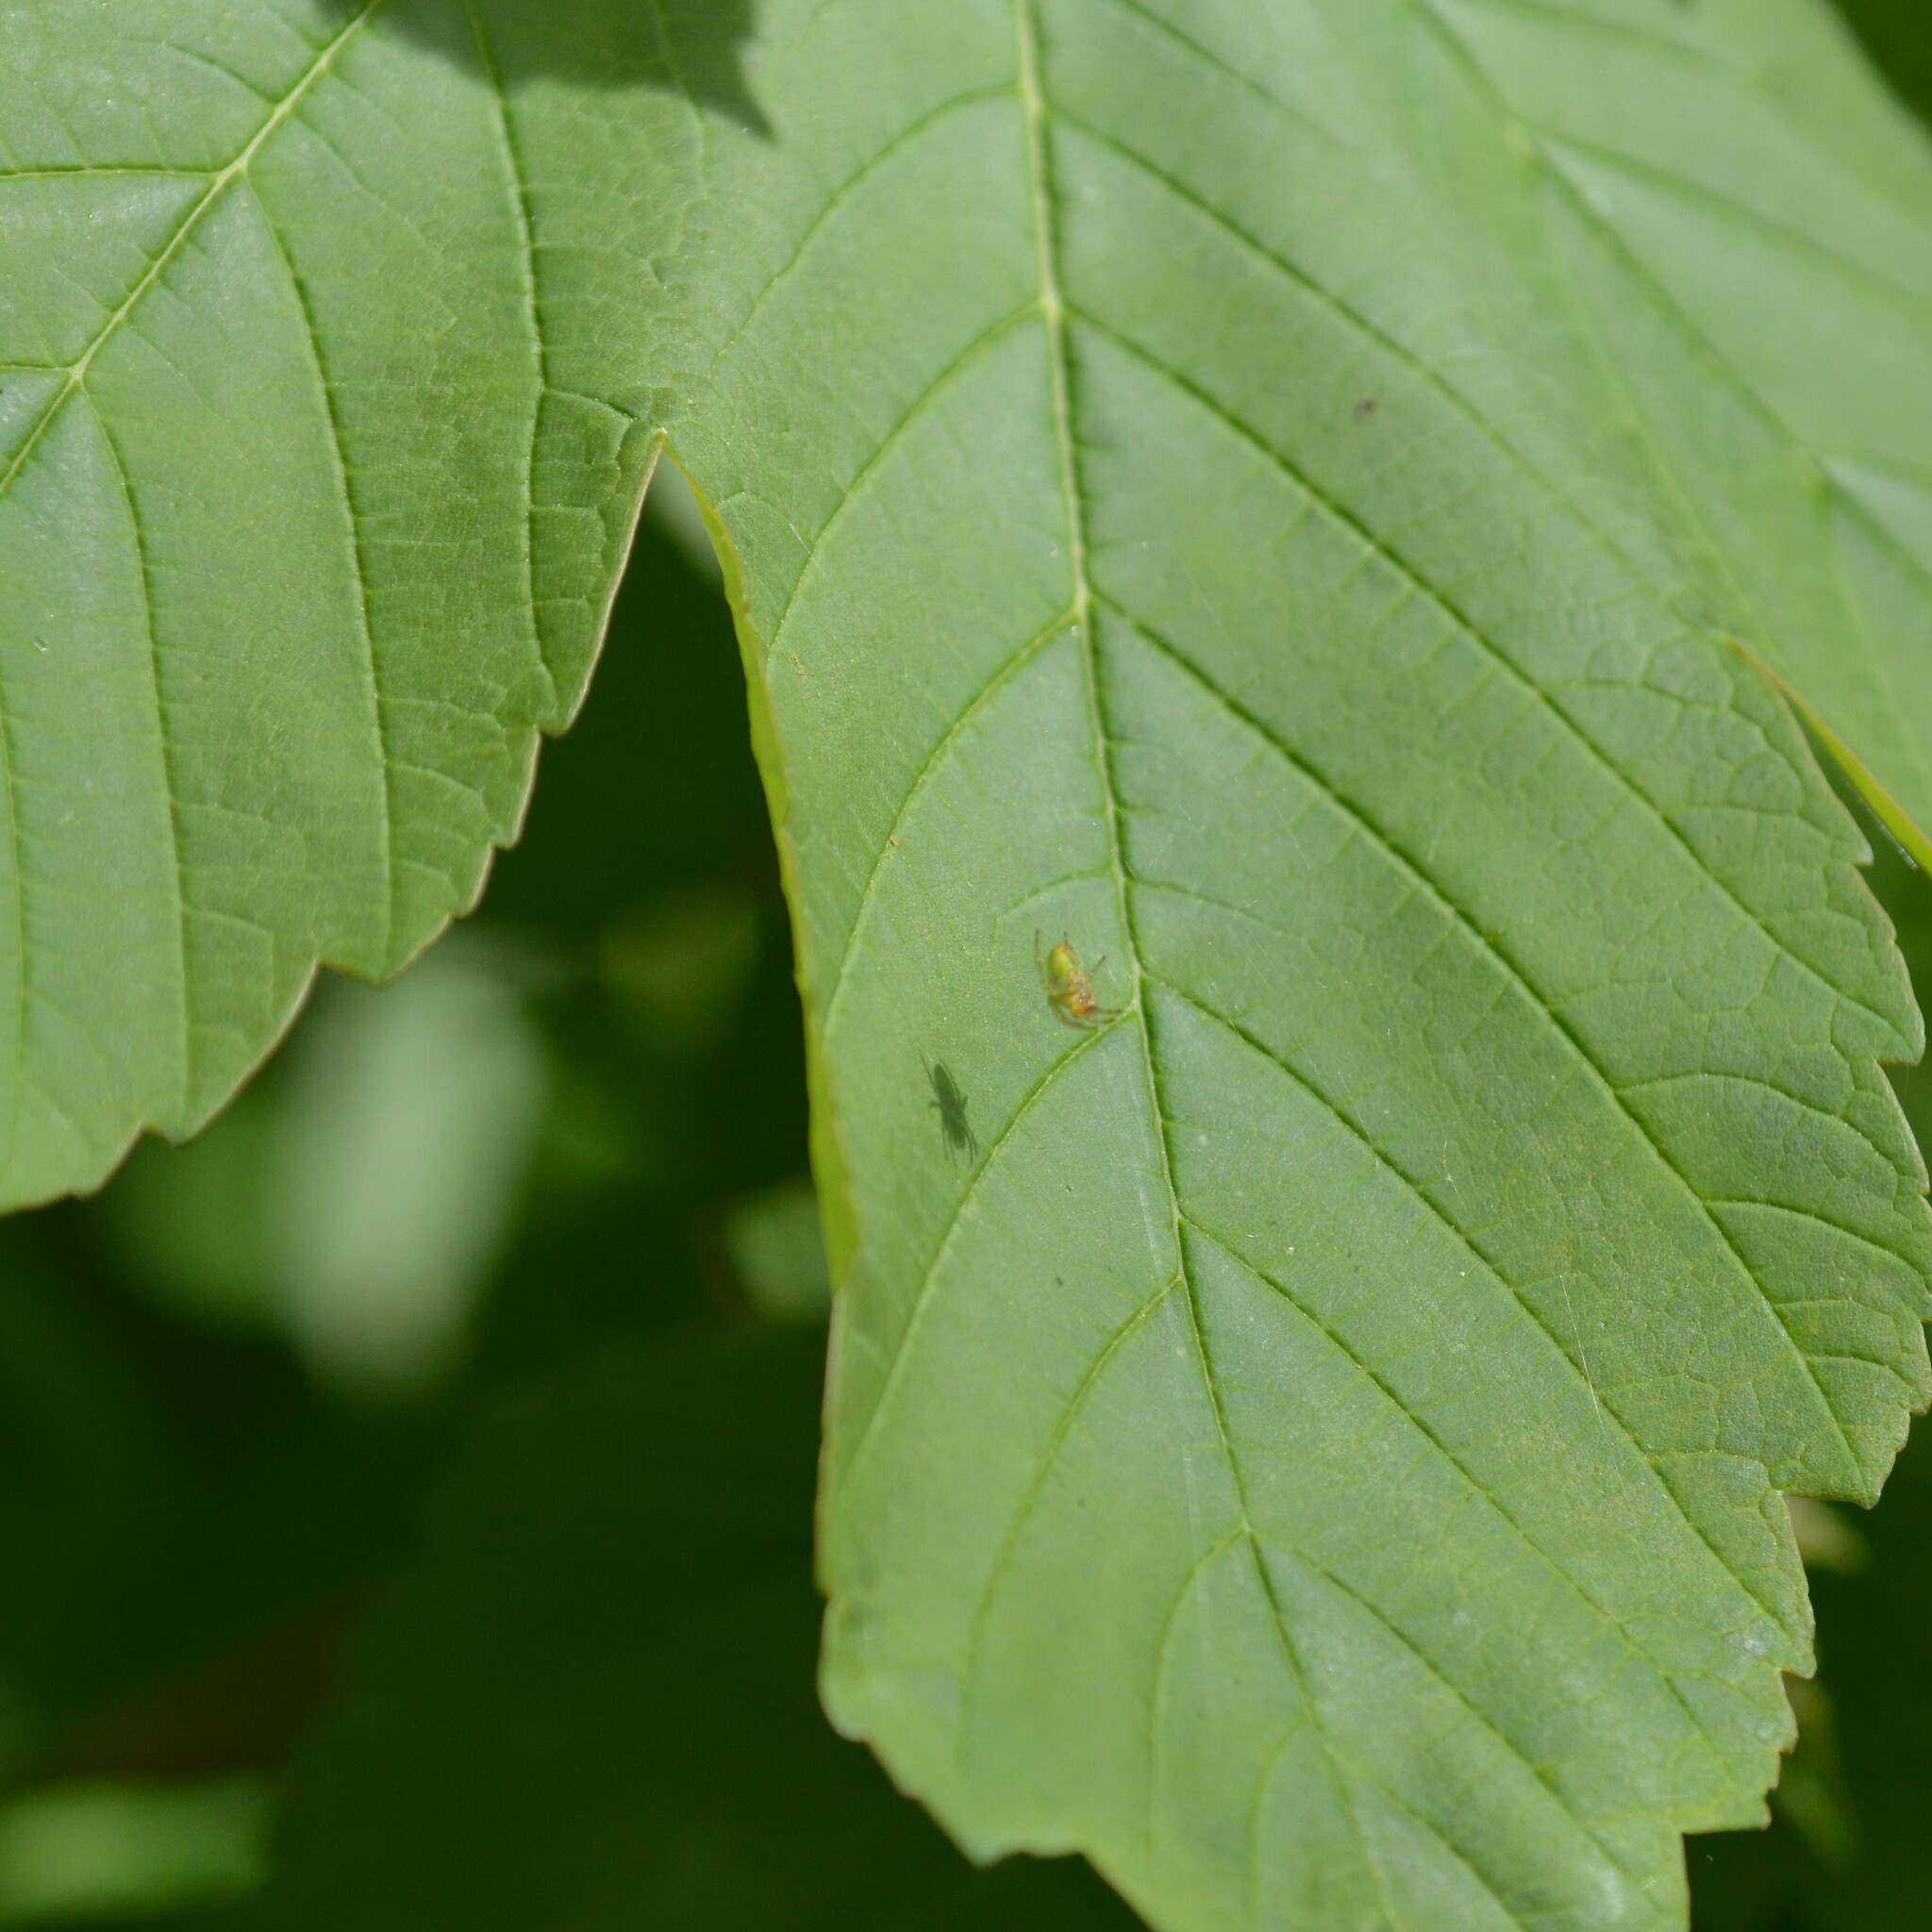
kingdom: Animalia
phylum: Arthropoda
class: Arachnida
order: Araneae
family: Araneidae
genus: Araniella
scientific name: Araniella
